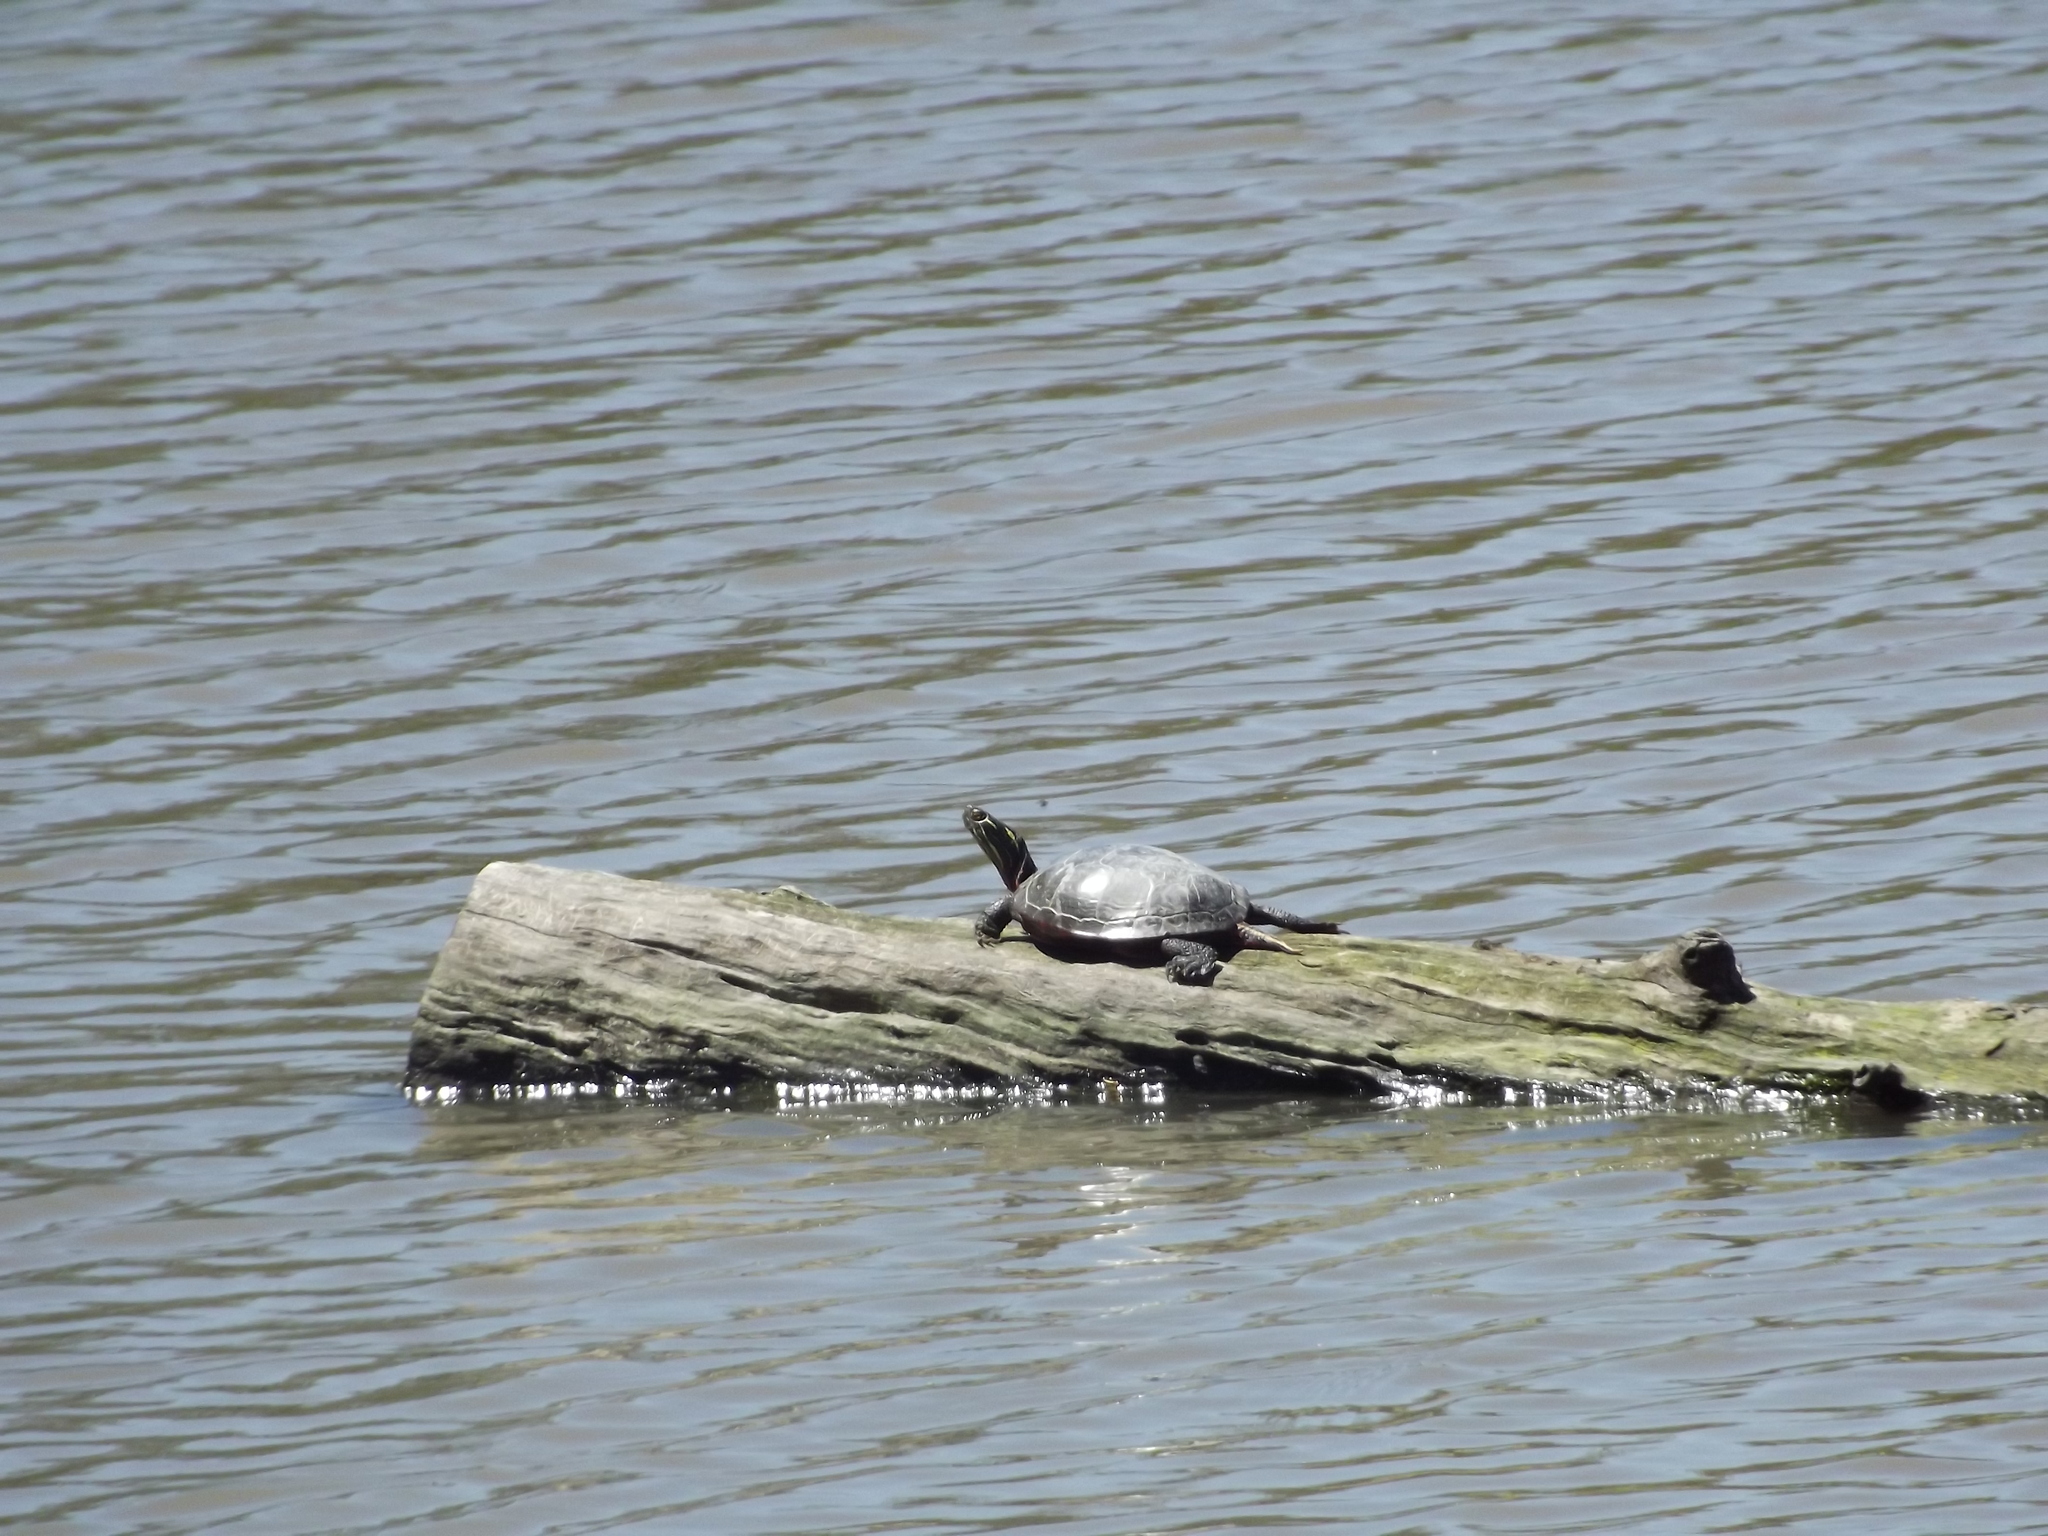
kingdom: Animalia
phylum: Chordata
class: Testudines
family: Emydidae
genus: Chrysemys
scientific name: Chrysemys picta
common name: Painted turtle
